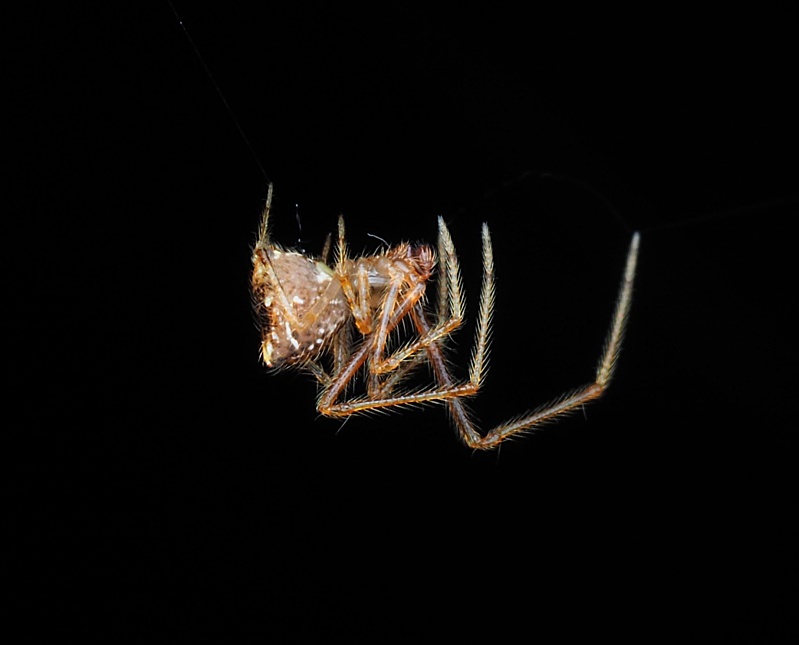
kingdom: Animalia
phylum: Arthropoda
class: Arachnida
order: Araneae
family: Theridiidae
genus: Cryptachaea
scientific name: Cryptachaea meraukensis
